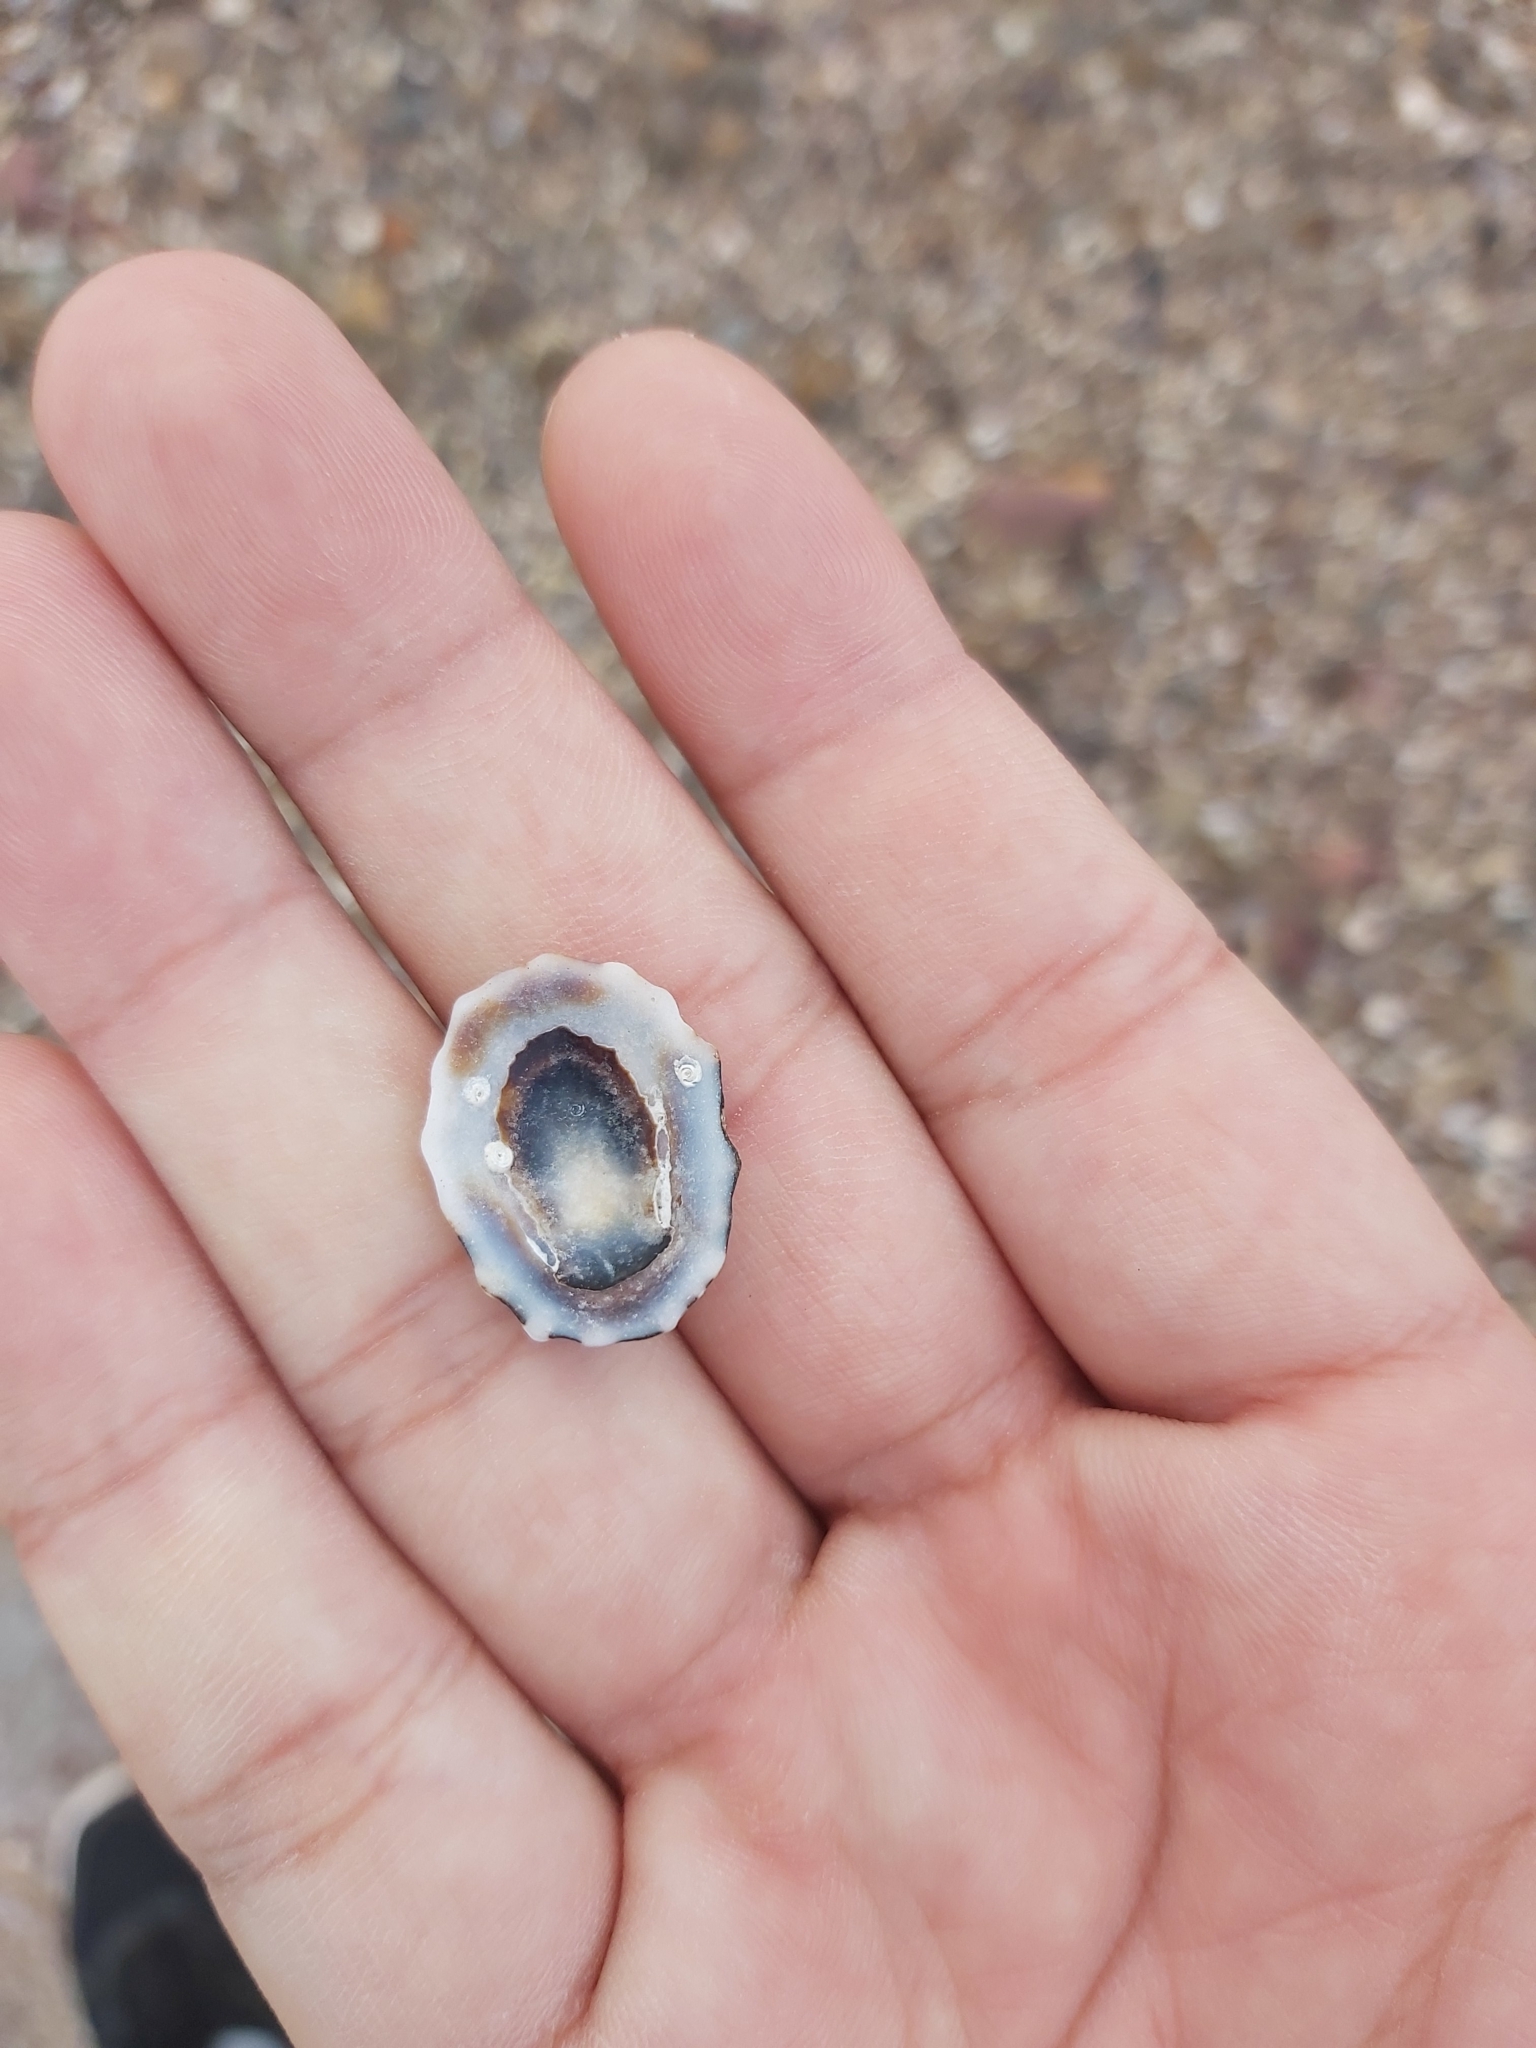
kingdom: Animalia
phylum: Mollusca
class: Gastropoda
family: Lottiidae
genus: Patelloida
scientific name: Patelloida alticostata
